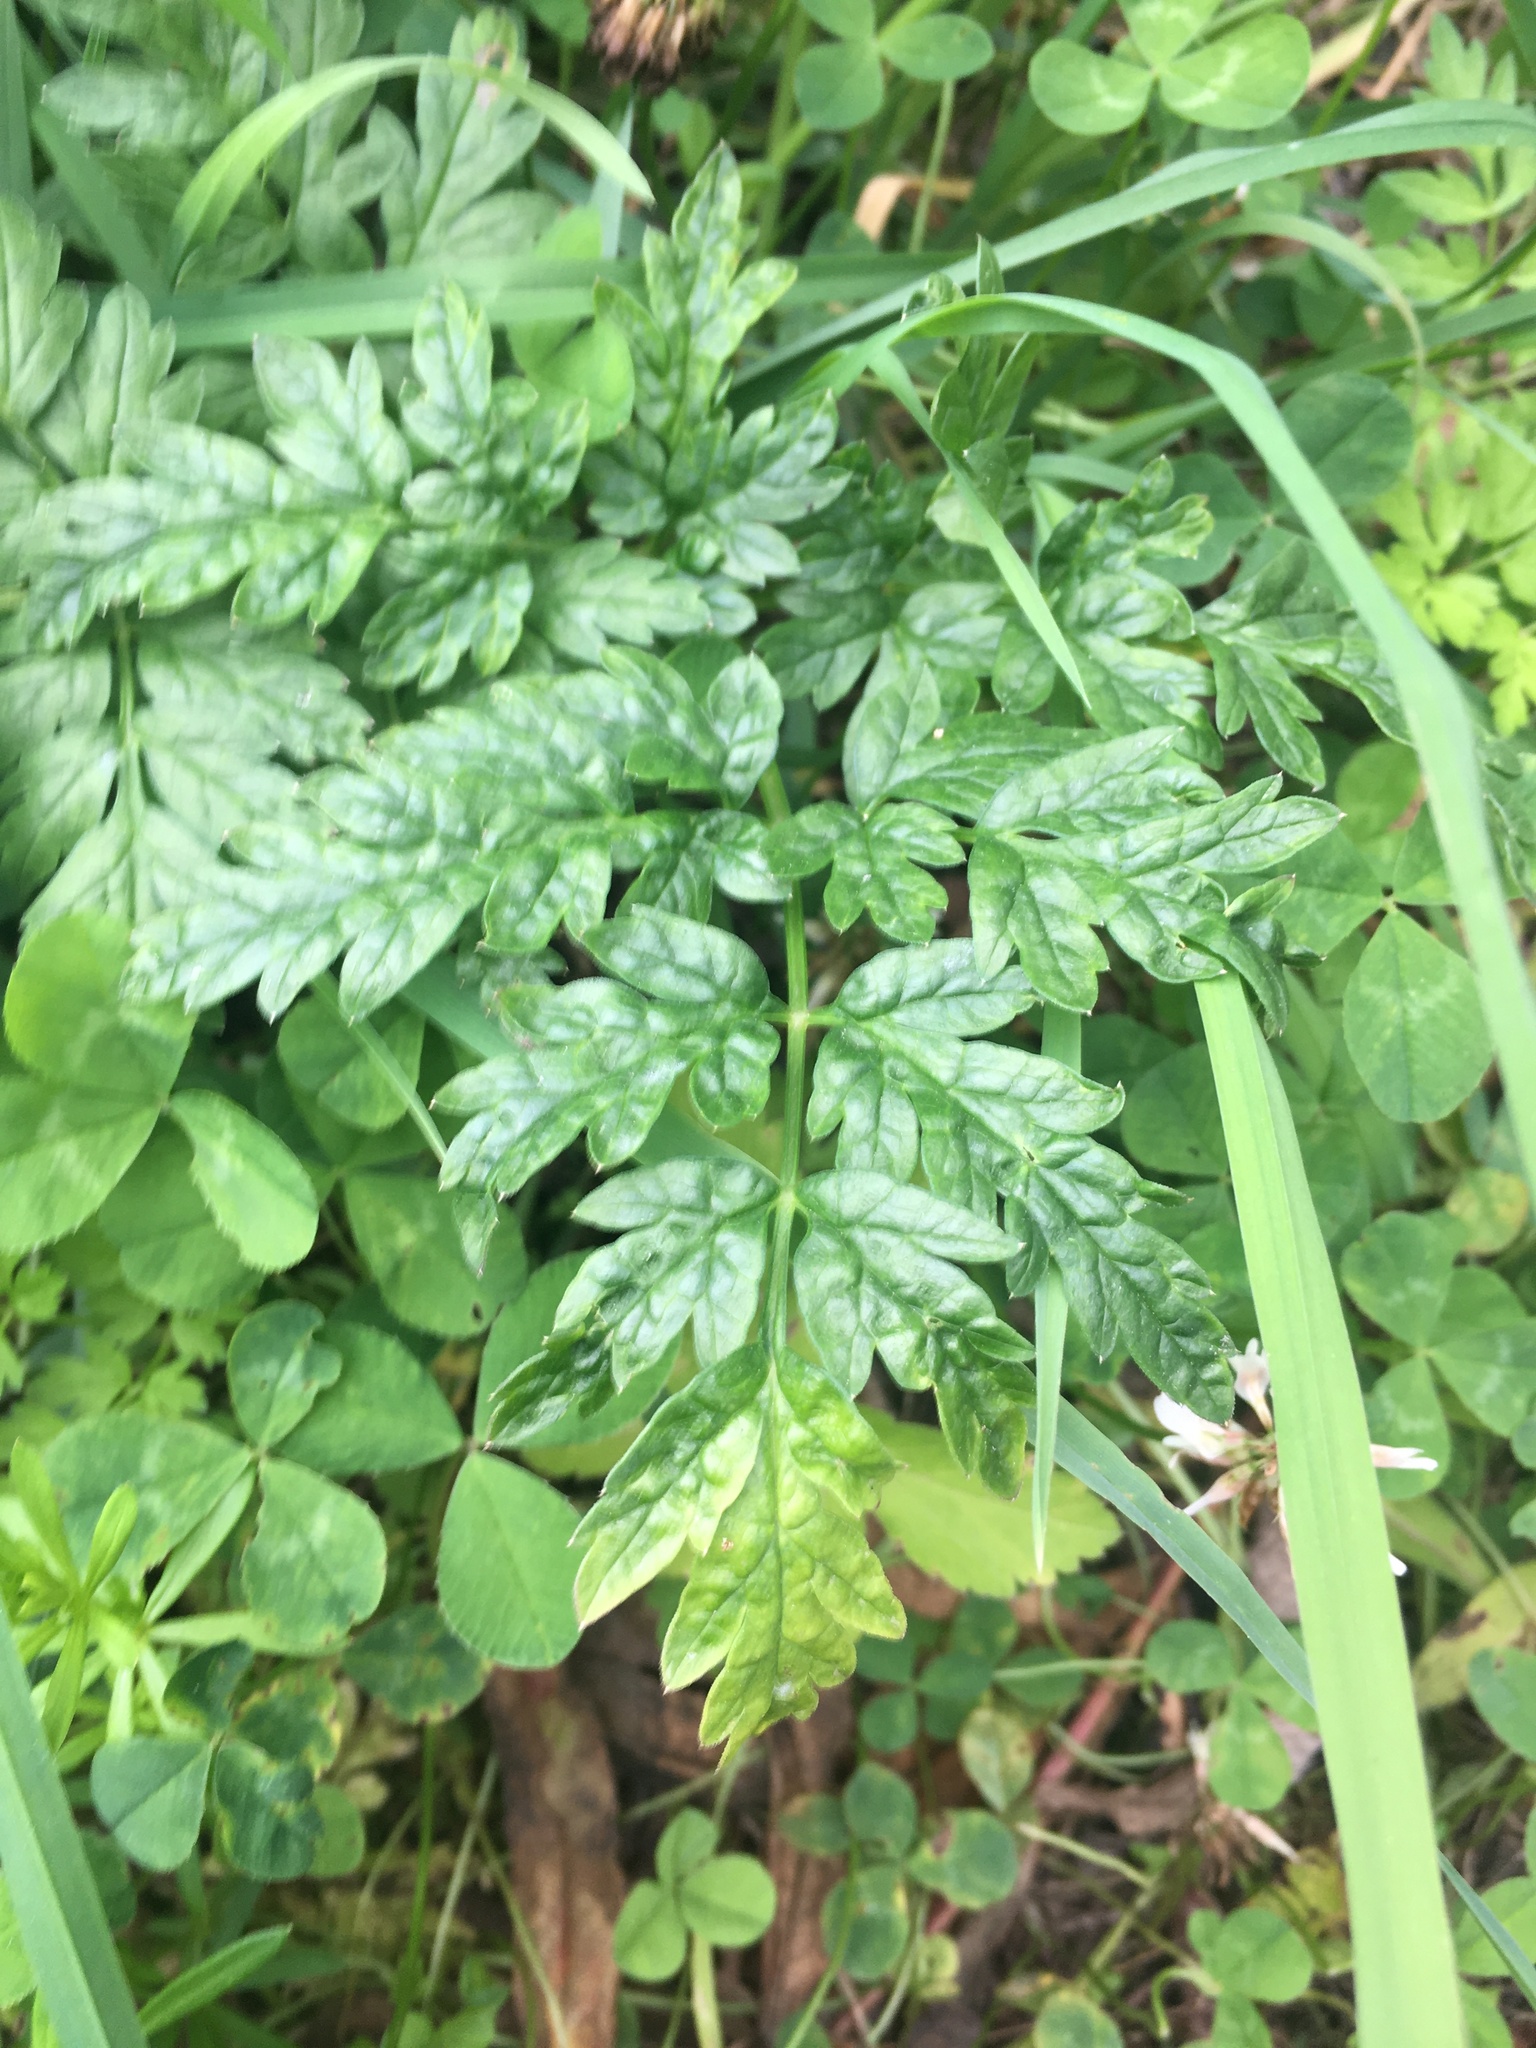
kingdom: Plantae
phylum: Tracheophyta
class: Magnoliopsida
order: Apiales
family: Apiaceae
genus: Anthriscus
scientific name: Anthriscus sylvestris
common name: Cow parsley
